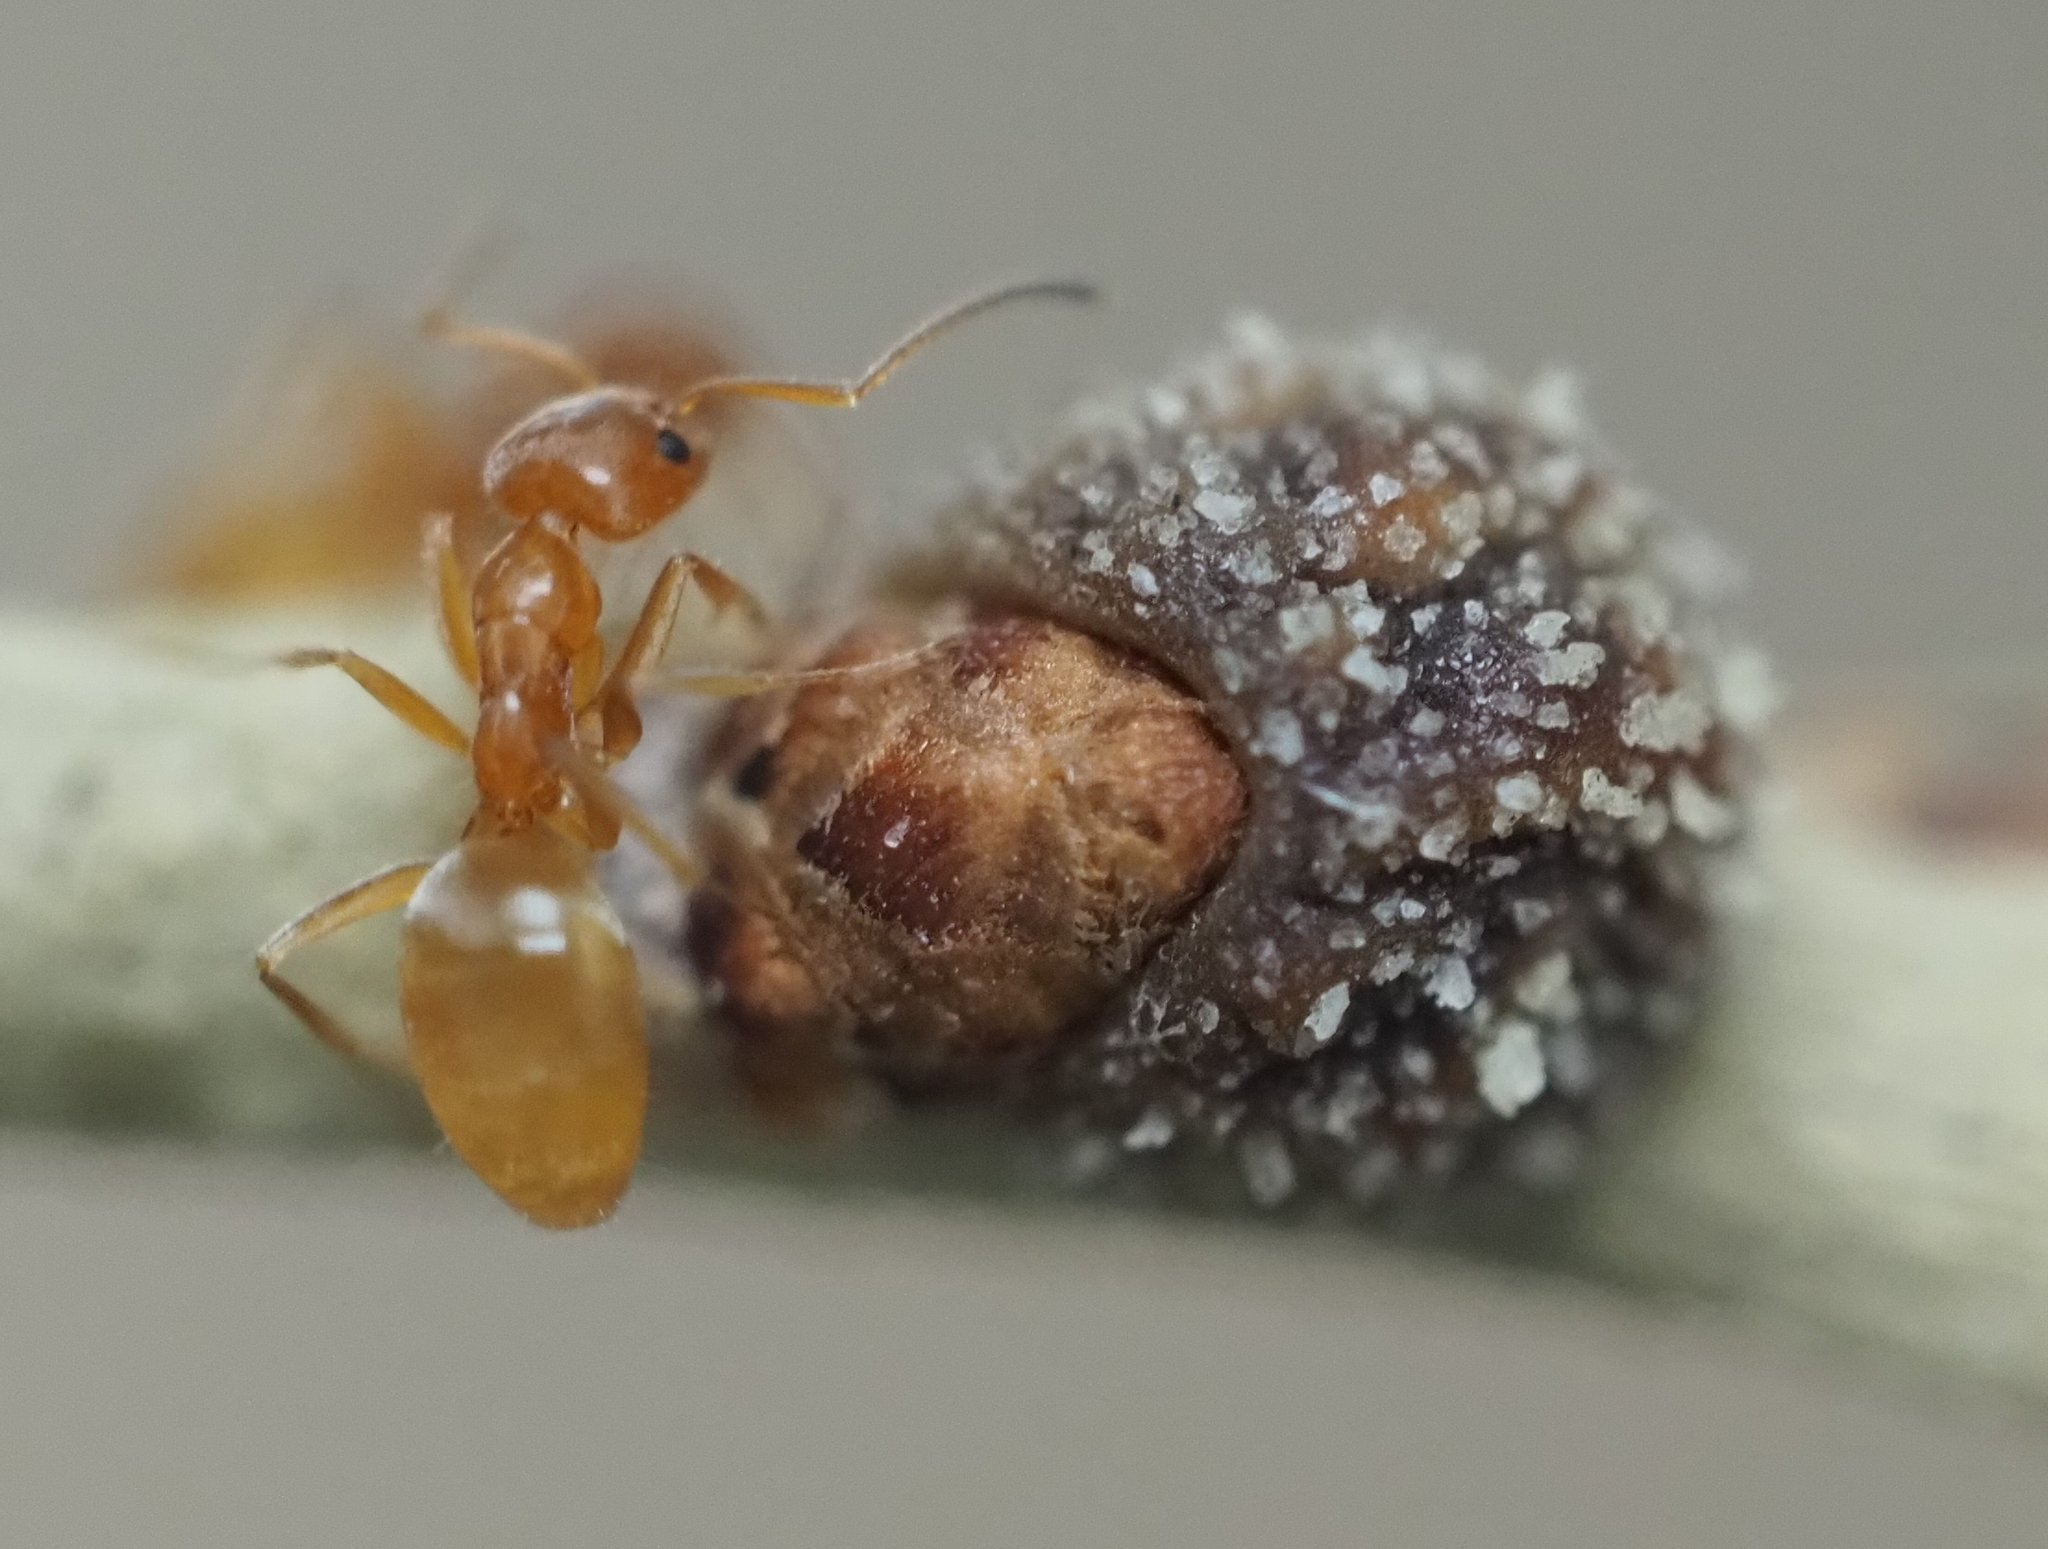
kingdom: Animalia
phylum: Arthropoda
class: Insecta
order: Hymenoptera
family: Formicidae
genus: Forelius
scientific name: Forelius pruinosus
